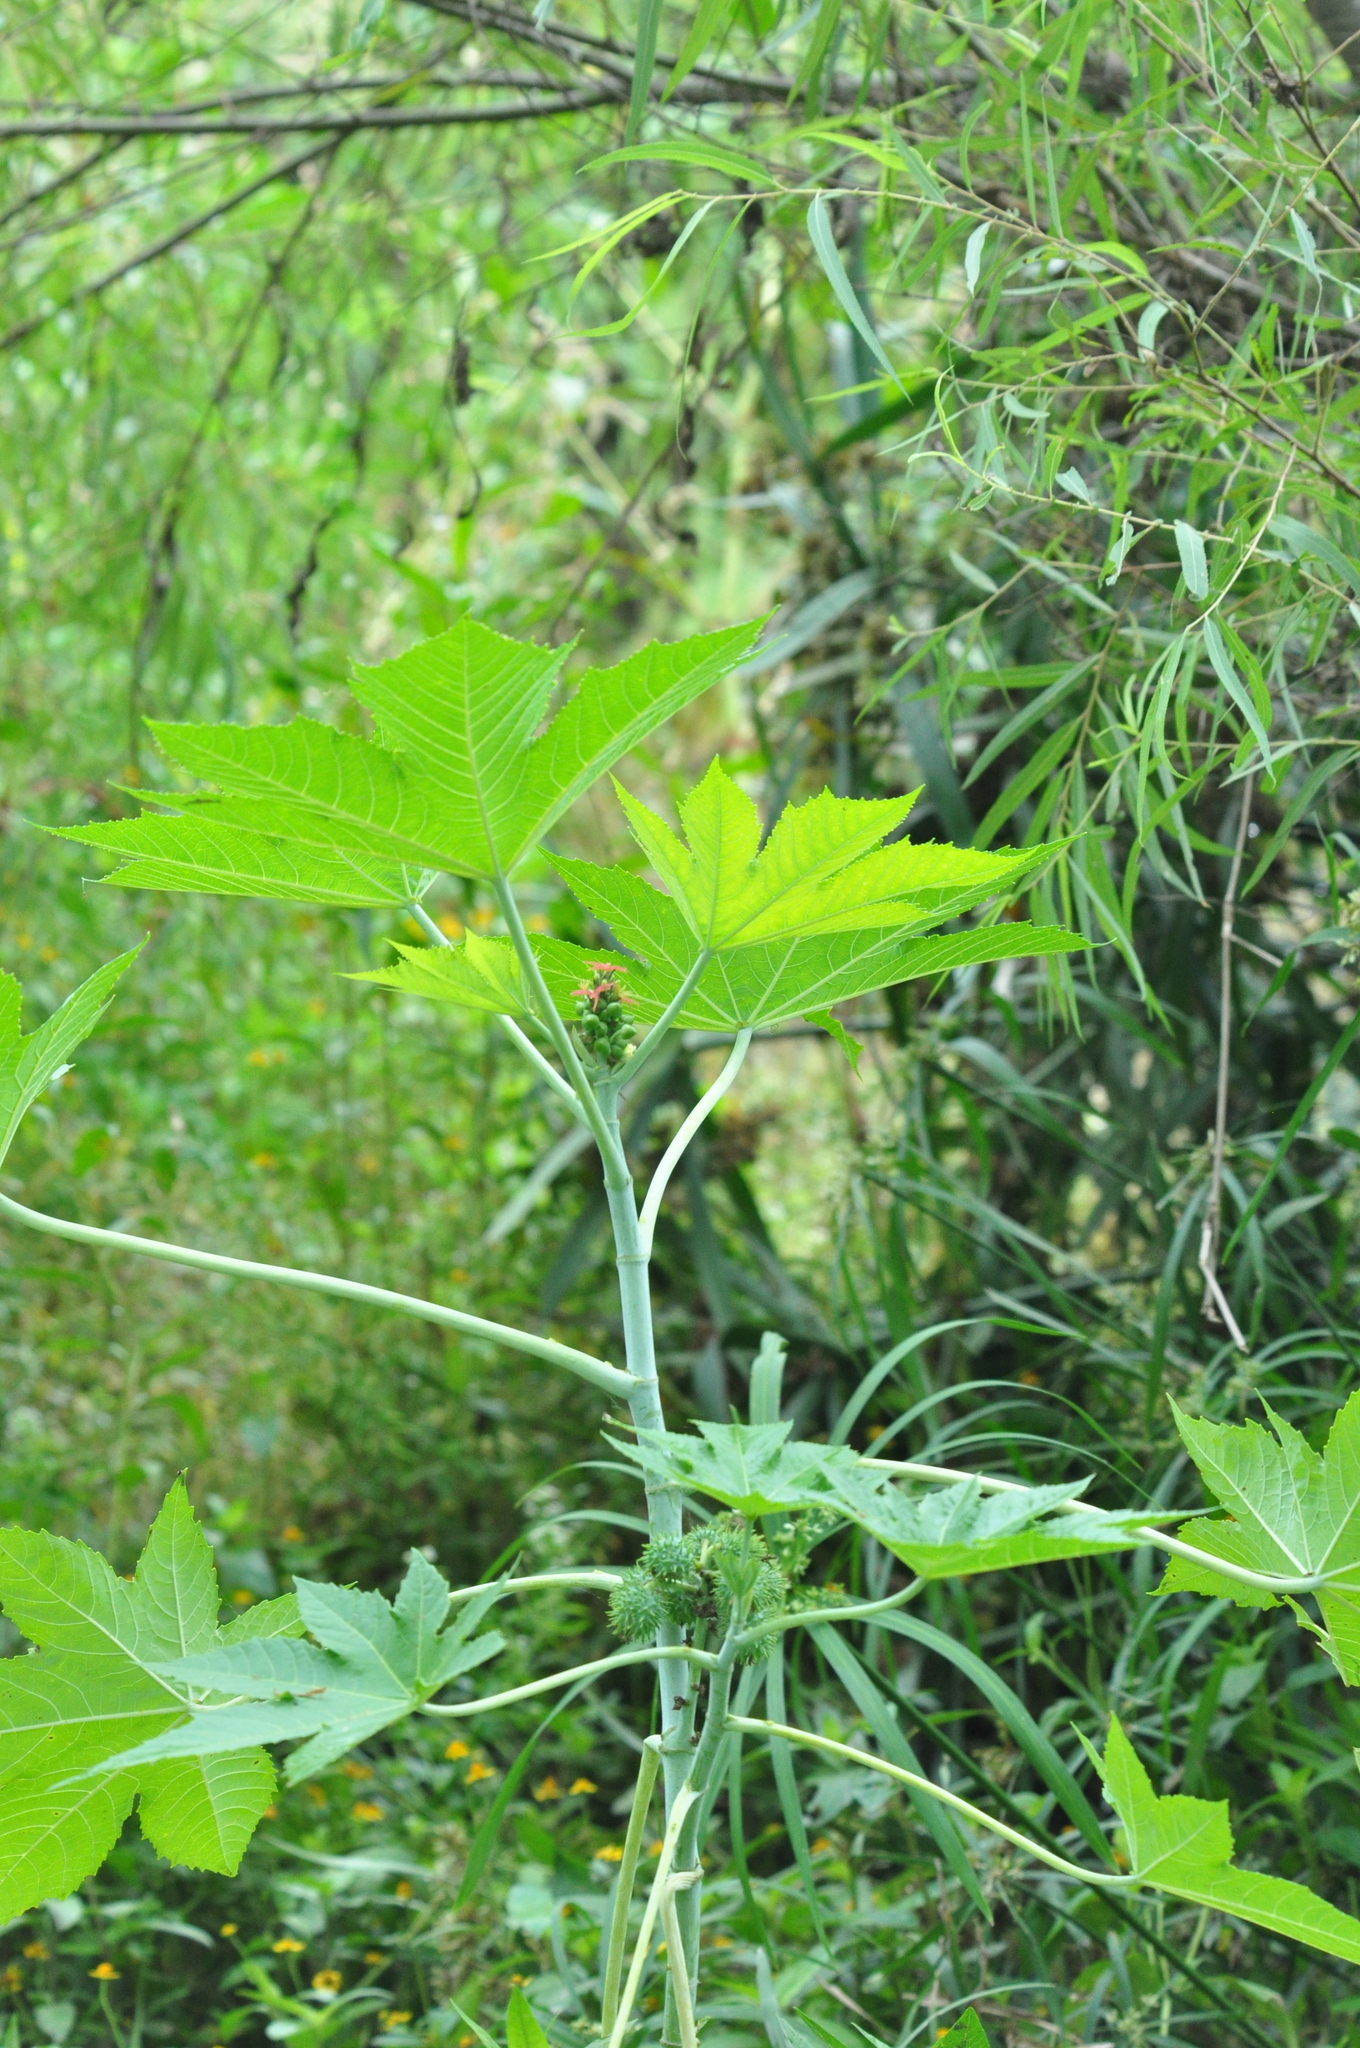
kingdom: Plantae
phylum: Tracheophyta
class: Magnoliopsida
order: Malpighiales
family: Euphorbiaceae
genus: Ricinus
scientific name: Ricinus communis
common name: Castor-oil-plant
